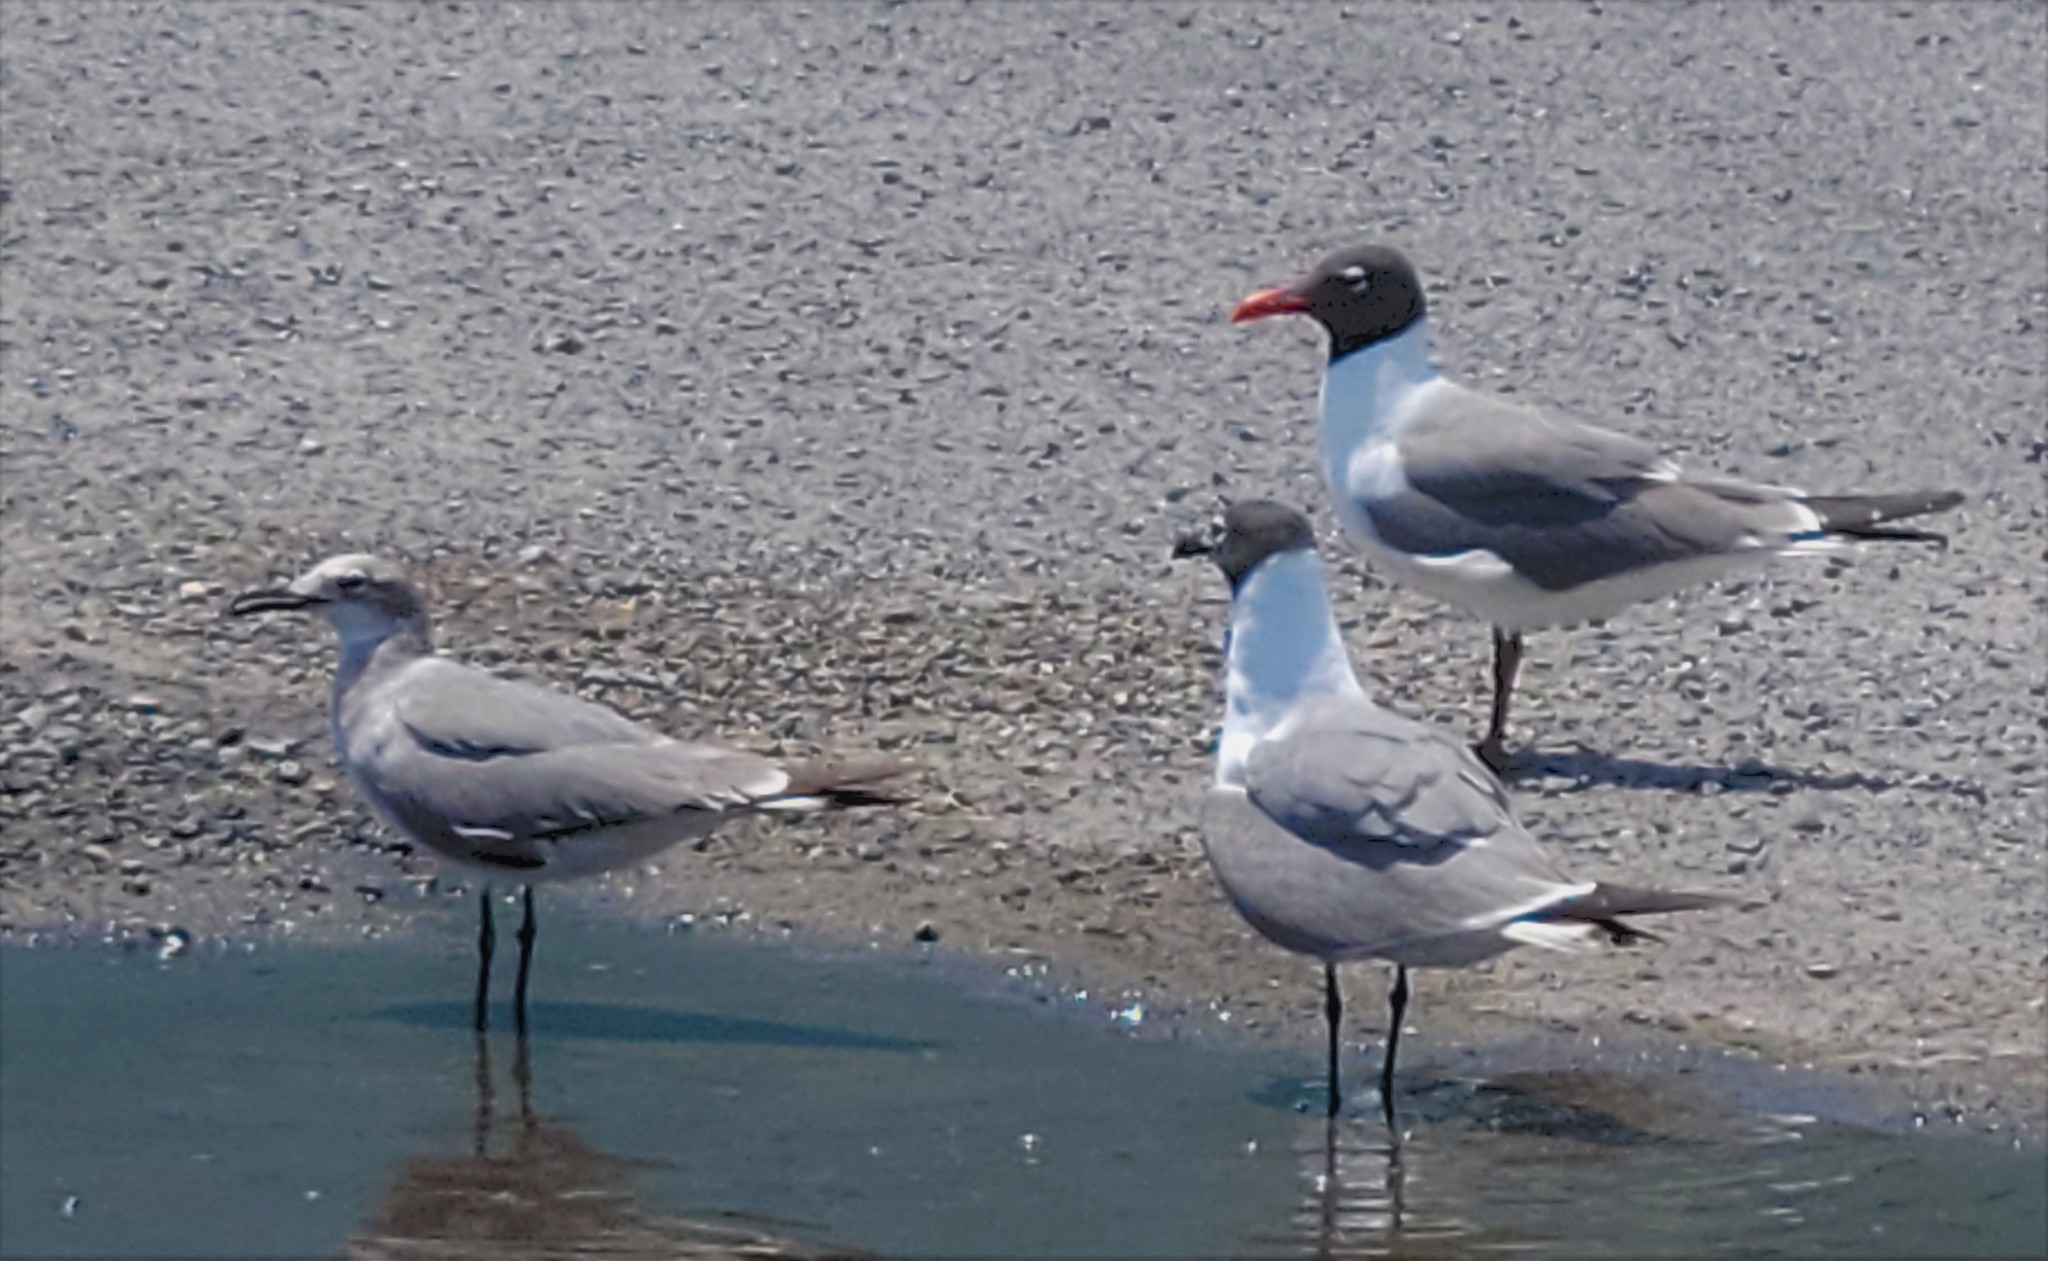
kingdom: Animalia
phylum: Chordata
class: Aves
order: Charadriiformes
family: Laridae
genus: Leucophaeus
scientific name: Leucophaeus atricilla
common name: Laughing gull
